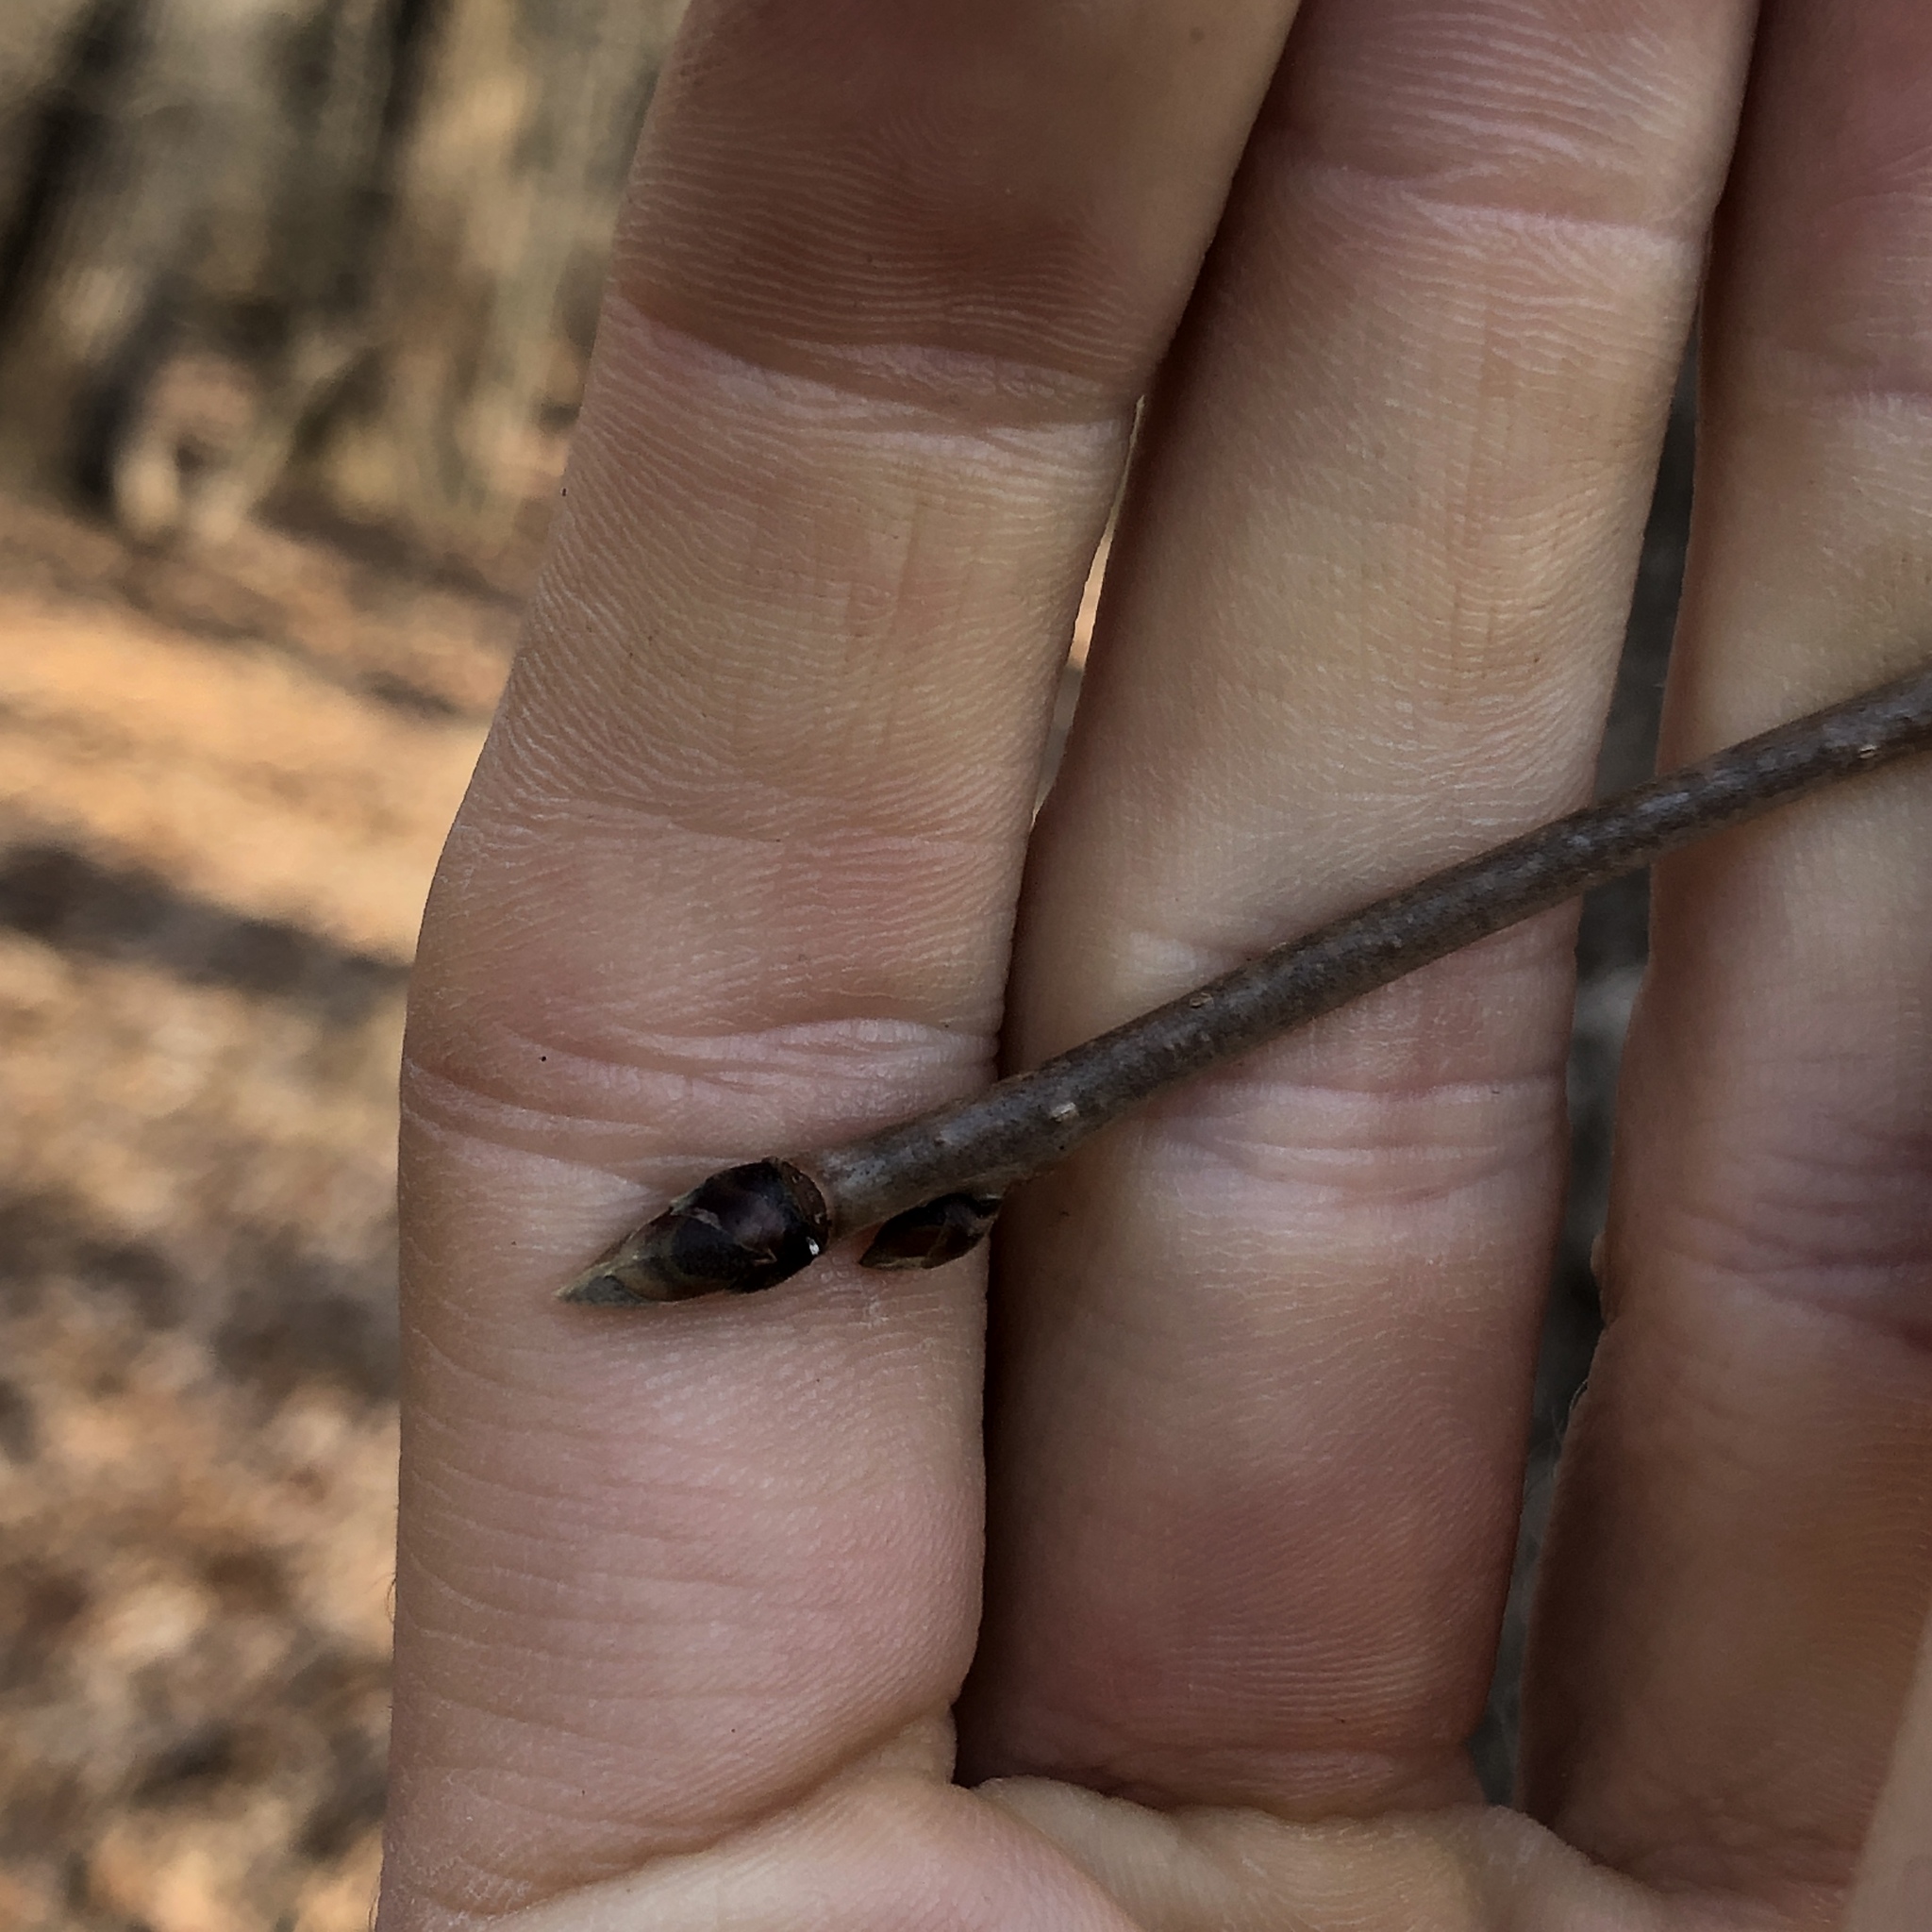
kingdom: Plantae
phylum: Tracheophyta
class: Magnoliopsida
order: Cornales
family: Nyssaceae
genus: Nyssa
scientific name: Nyssa sylvatica
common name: Black tupelo
